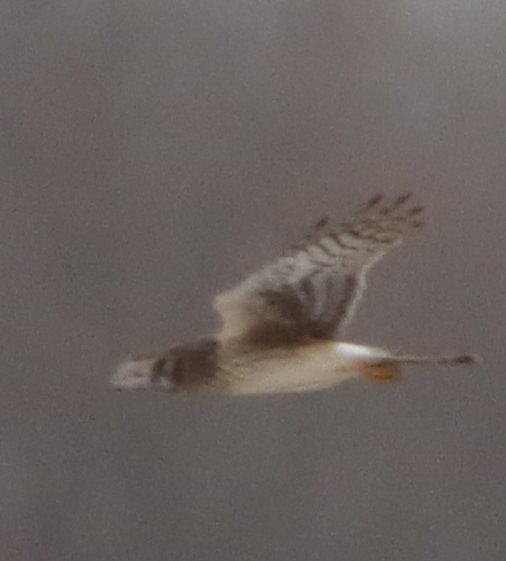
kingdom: Animalia
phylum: Chordata
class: Aves
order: Accipitriformes
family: Accipitridae
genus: Circus
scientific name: Circus cyaneus
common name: Hen harrier
